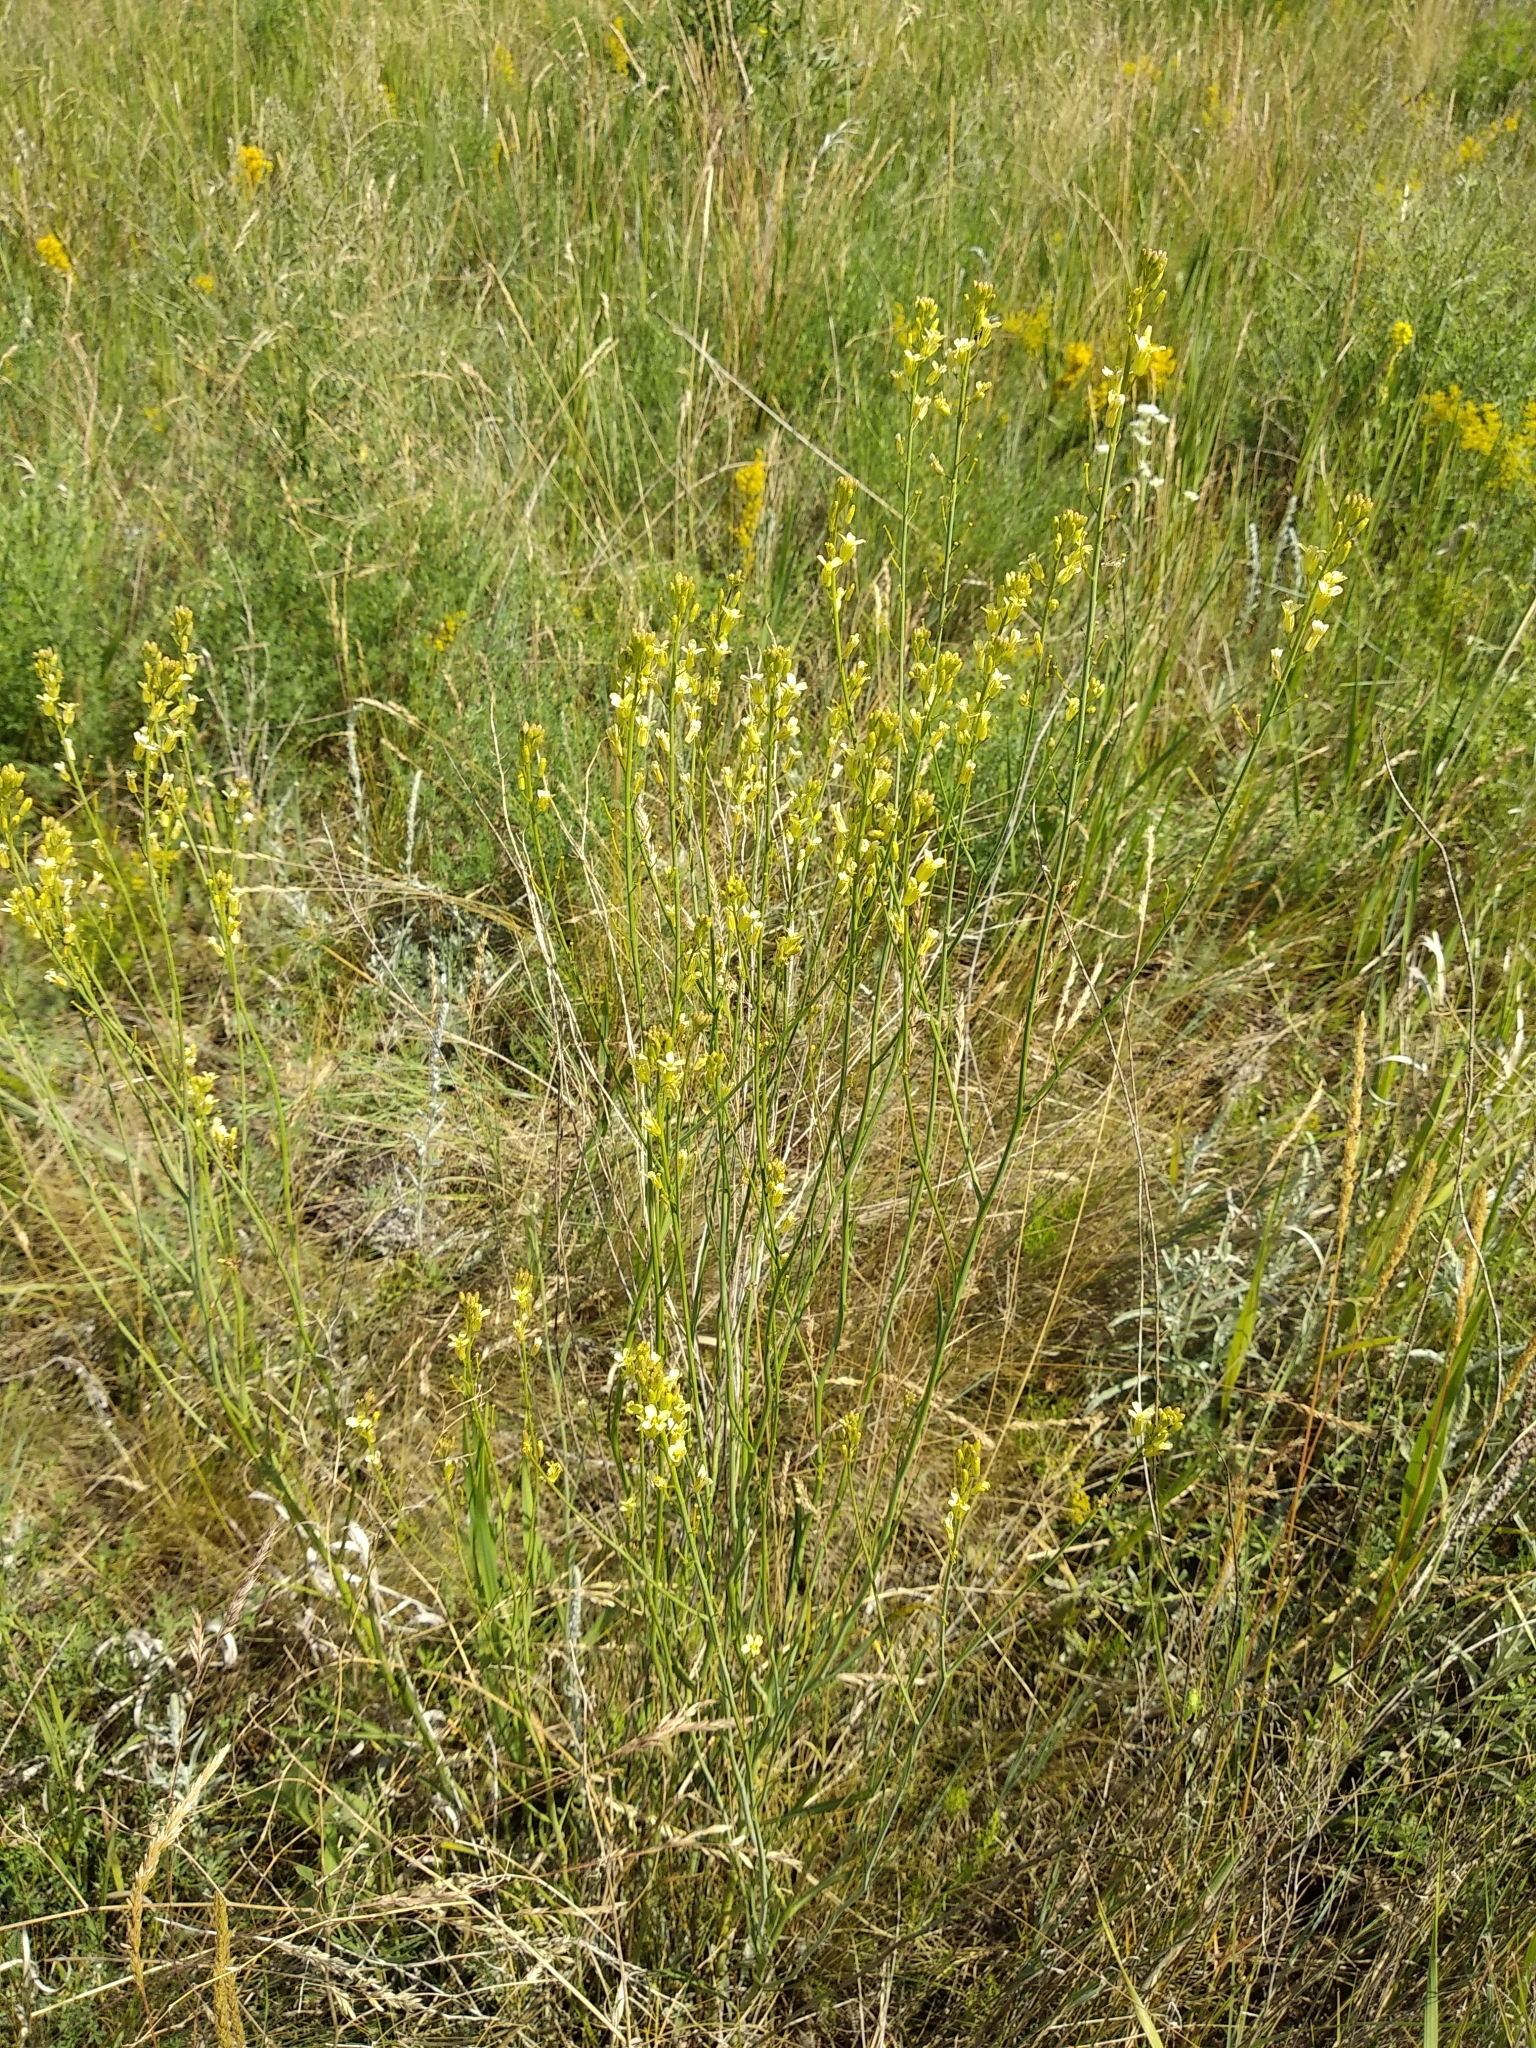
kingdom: Plantae
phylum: Tracheophyta
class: Magnoliopsida
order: Brassicales
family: Brassicaceae
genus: Sisymbrium
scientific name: Sisymbrium polymorphum
